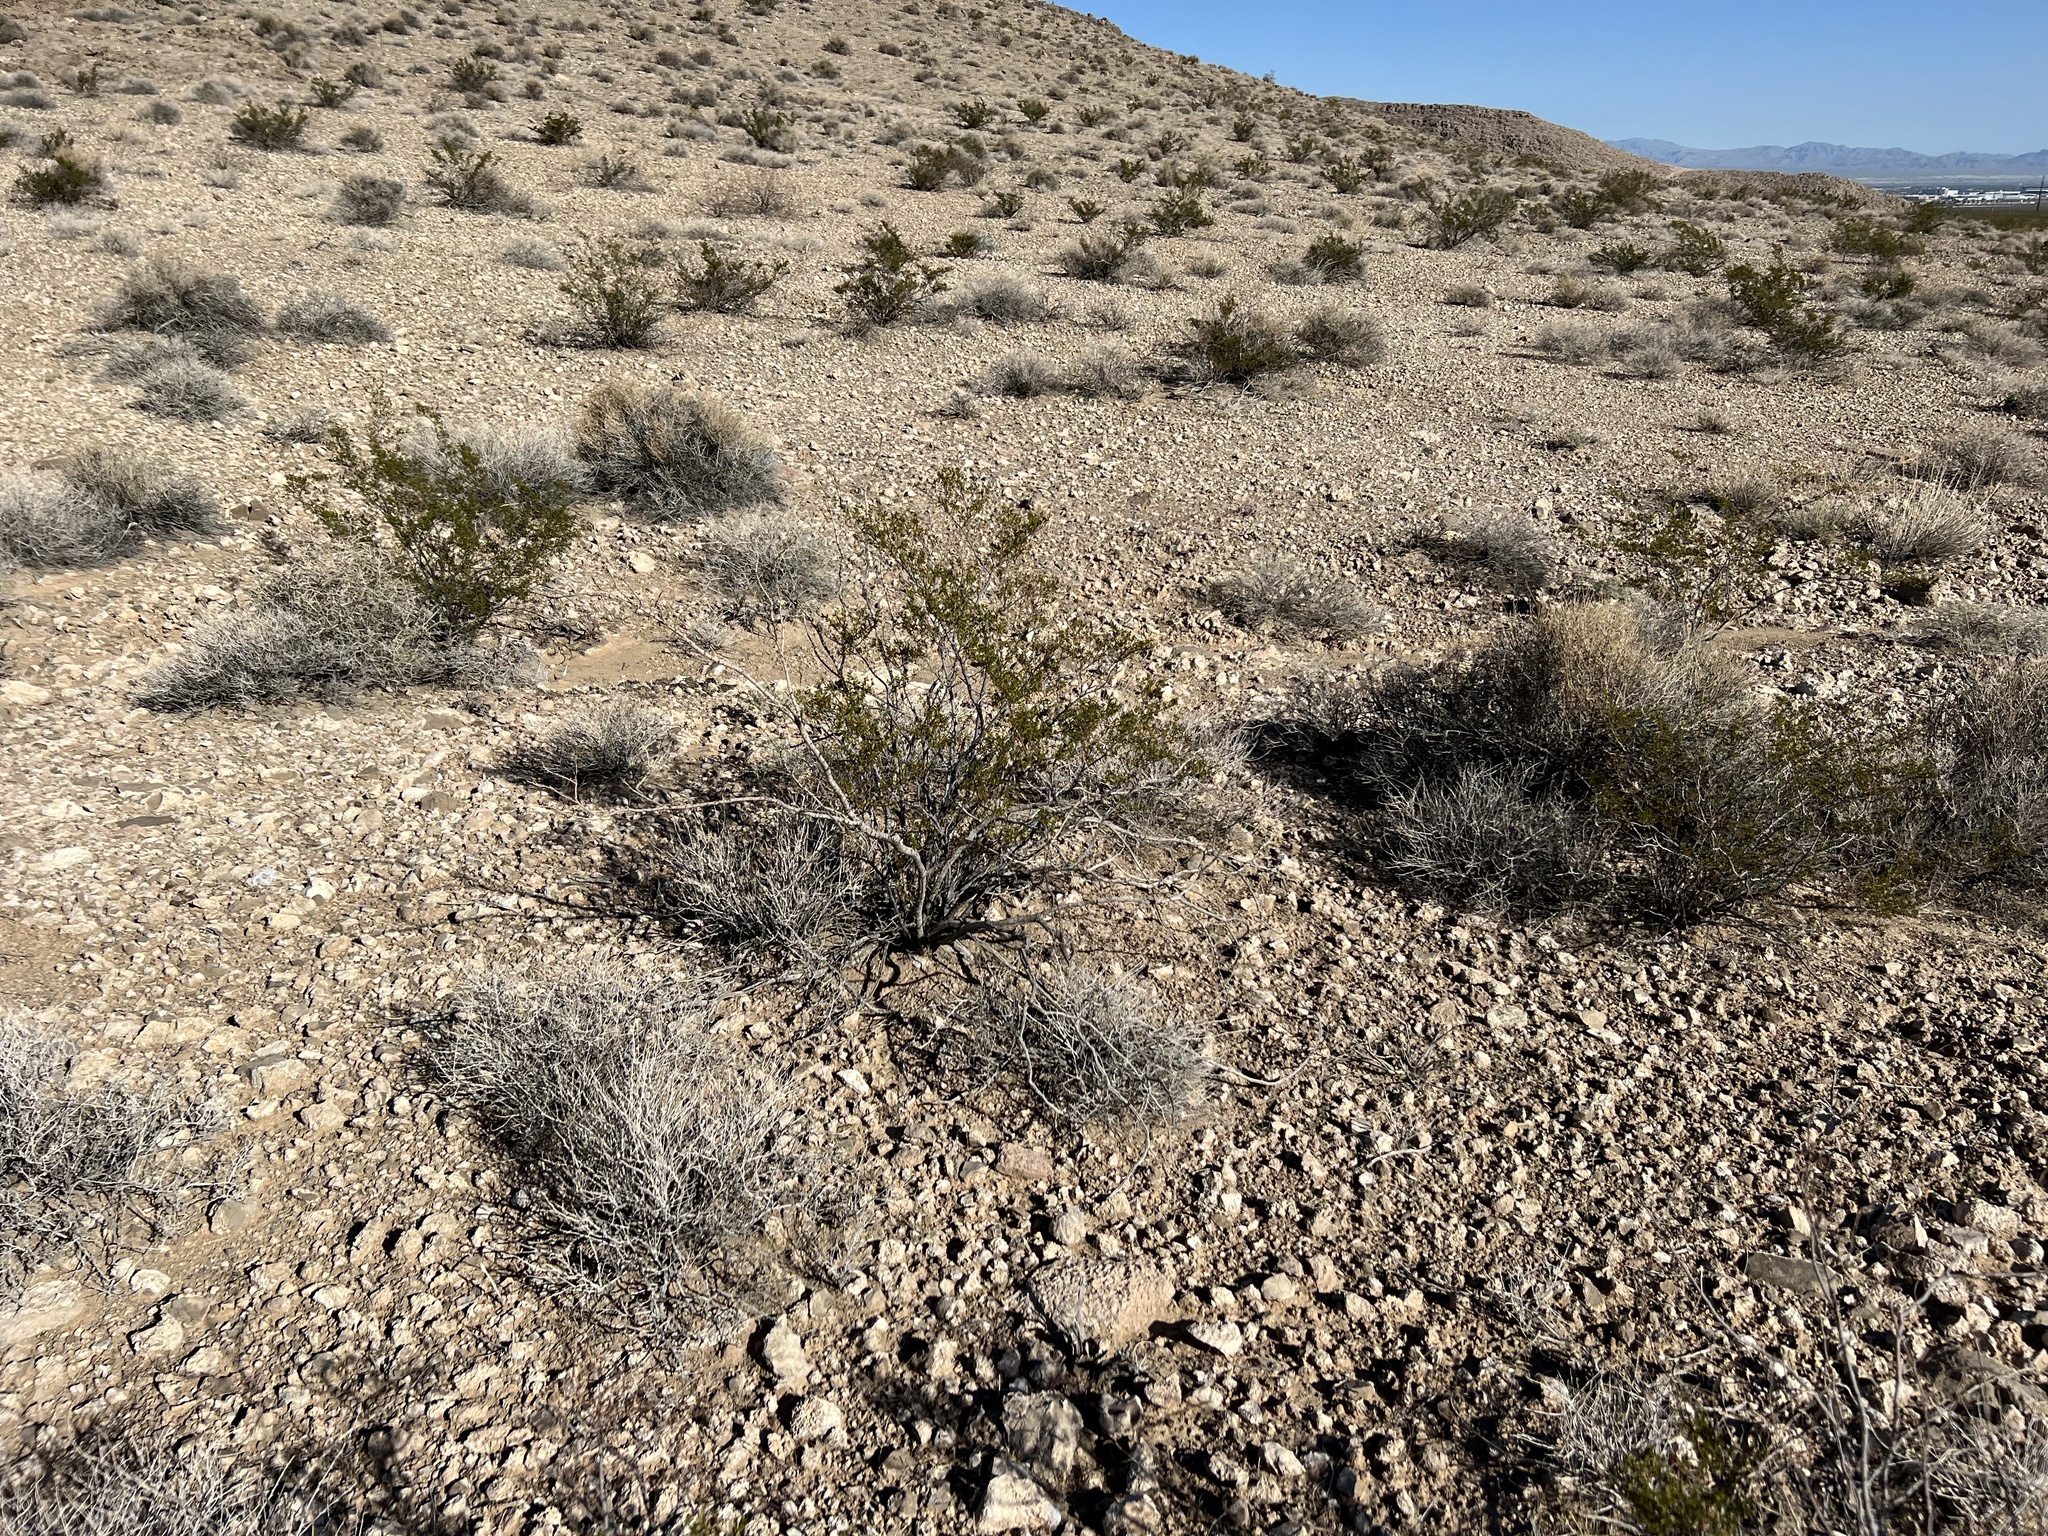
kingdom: Plantae
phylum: Tracheophyta
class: Magnoliopsida
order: Zygophyllales
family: Zygophyllaceae
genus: Larrea
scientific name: Larrea tridentata
